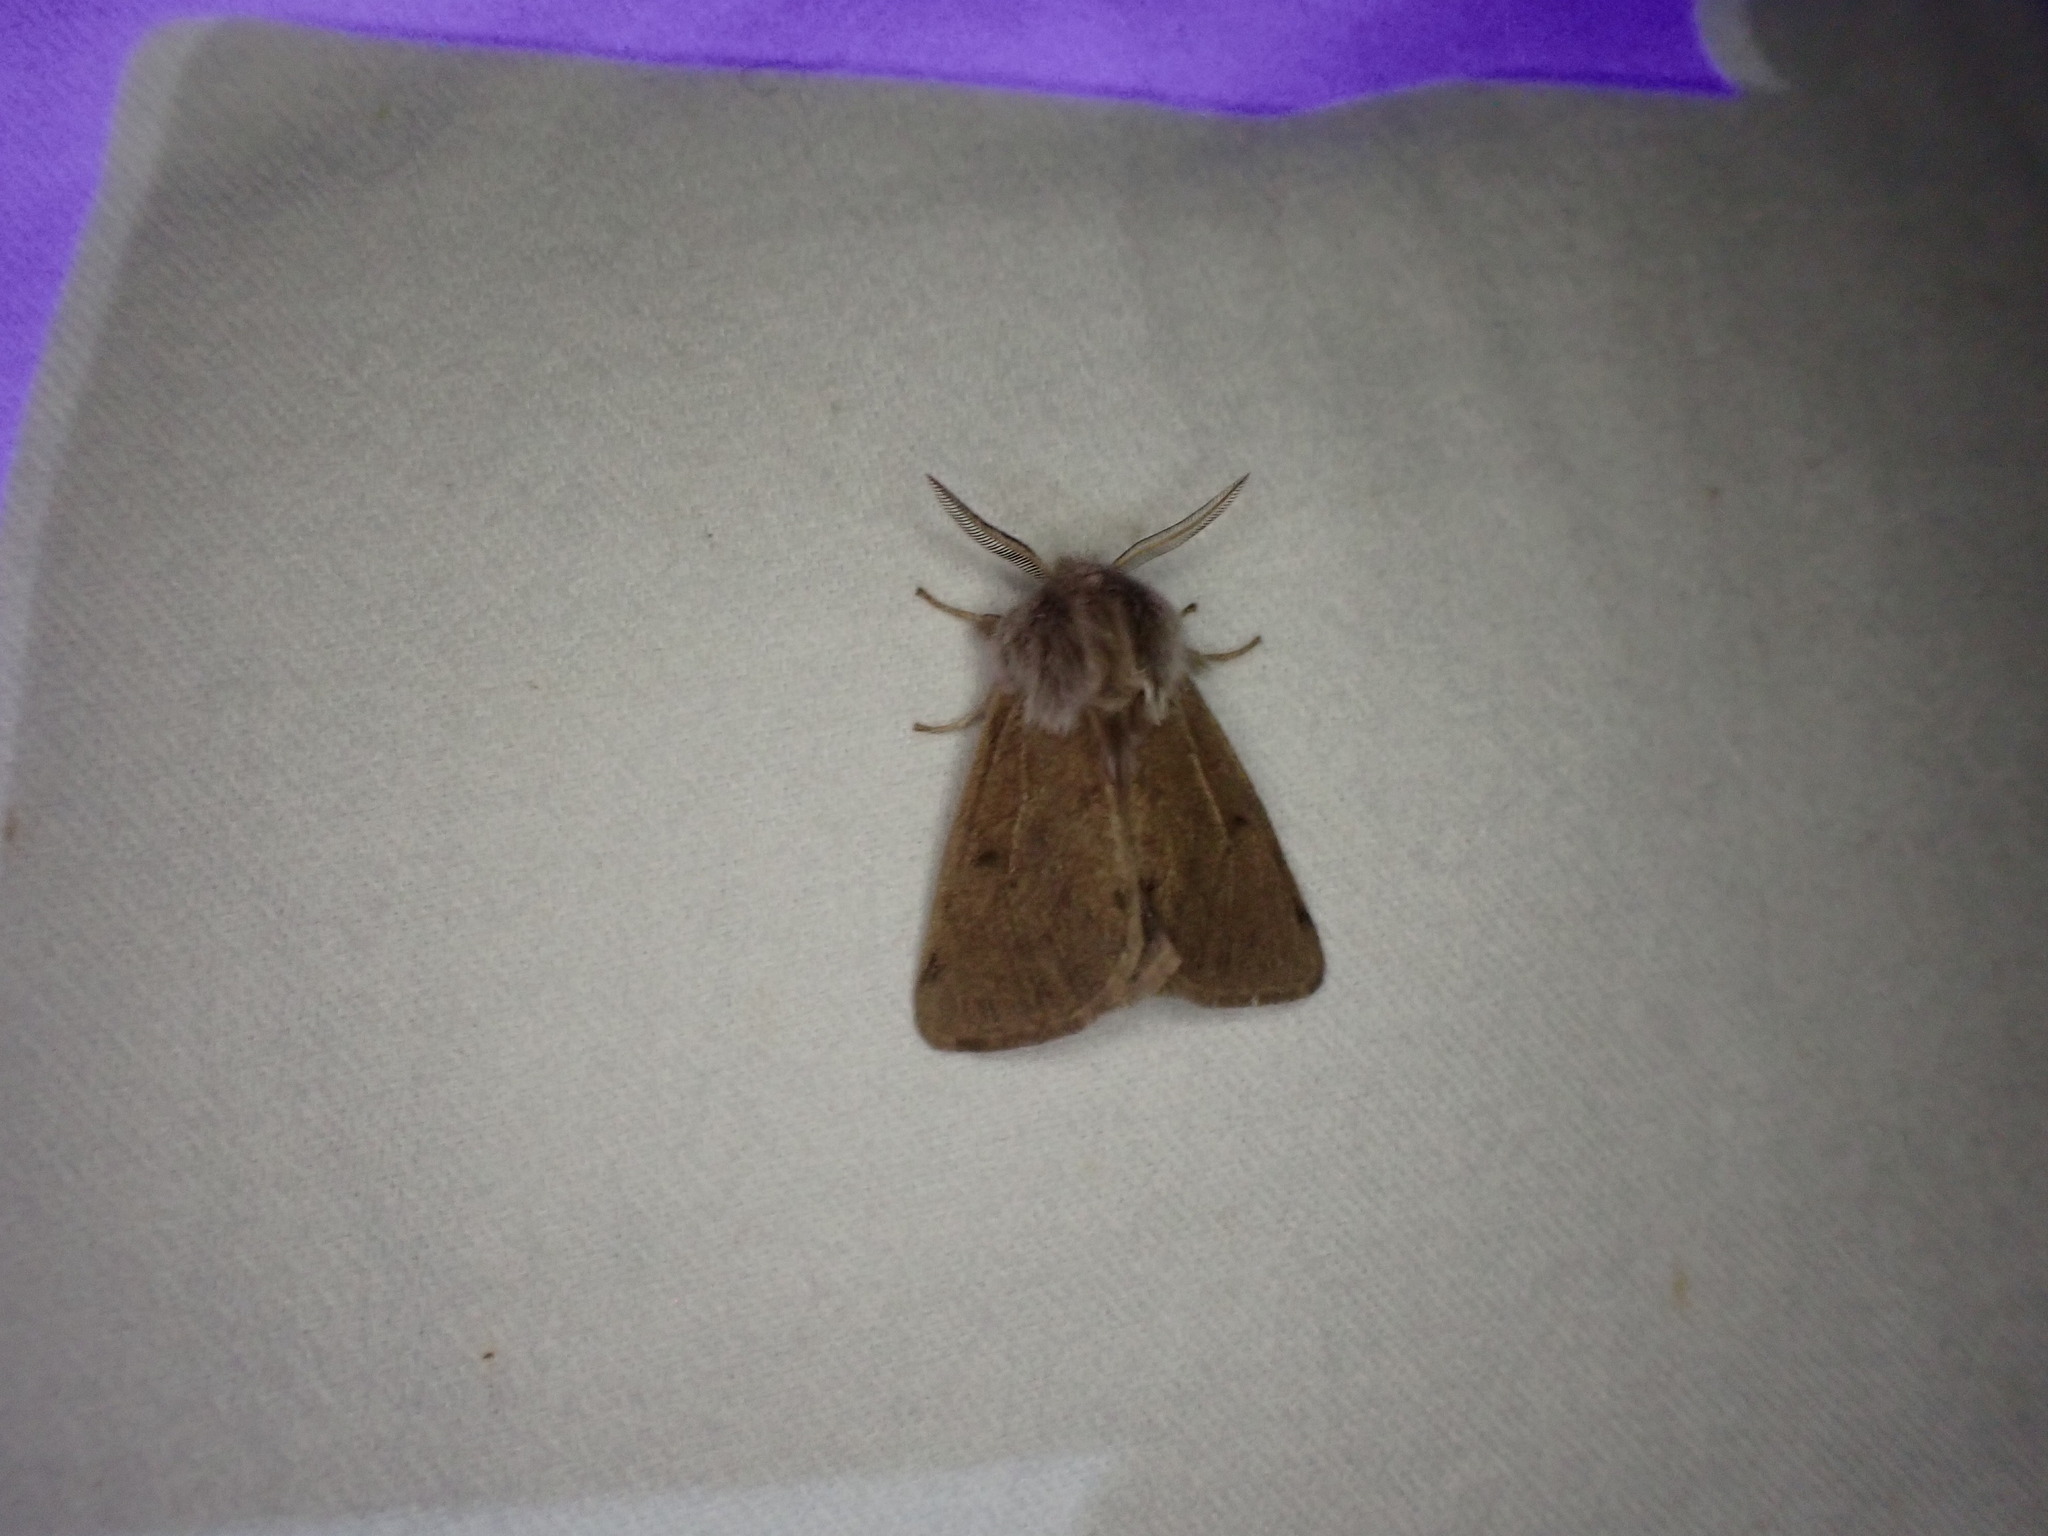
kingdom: Animalia
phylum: Arthropoda
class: Insecta
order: Lepidoptera
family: Erebidae
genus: Spilosoma
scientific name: Spilosoma vagans
